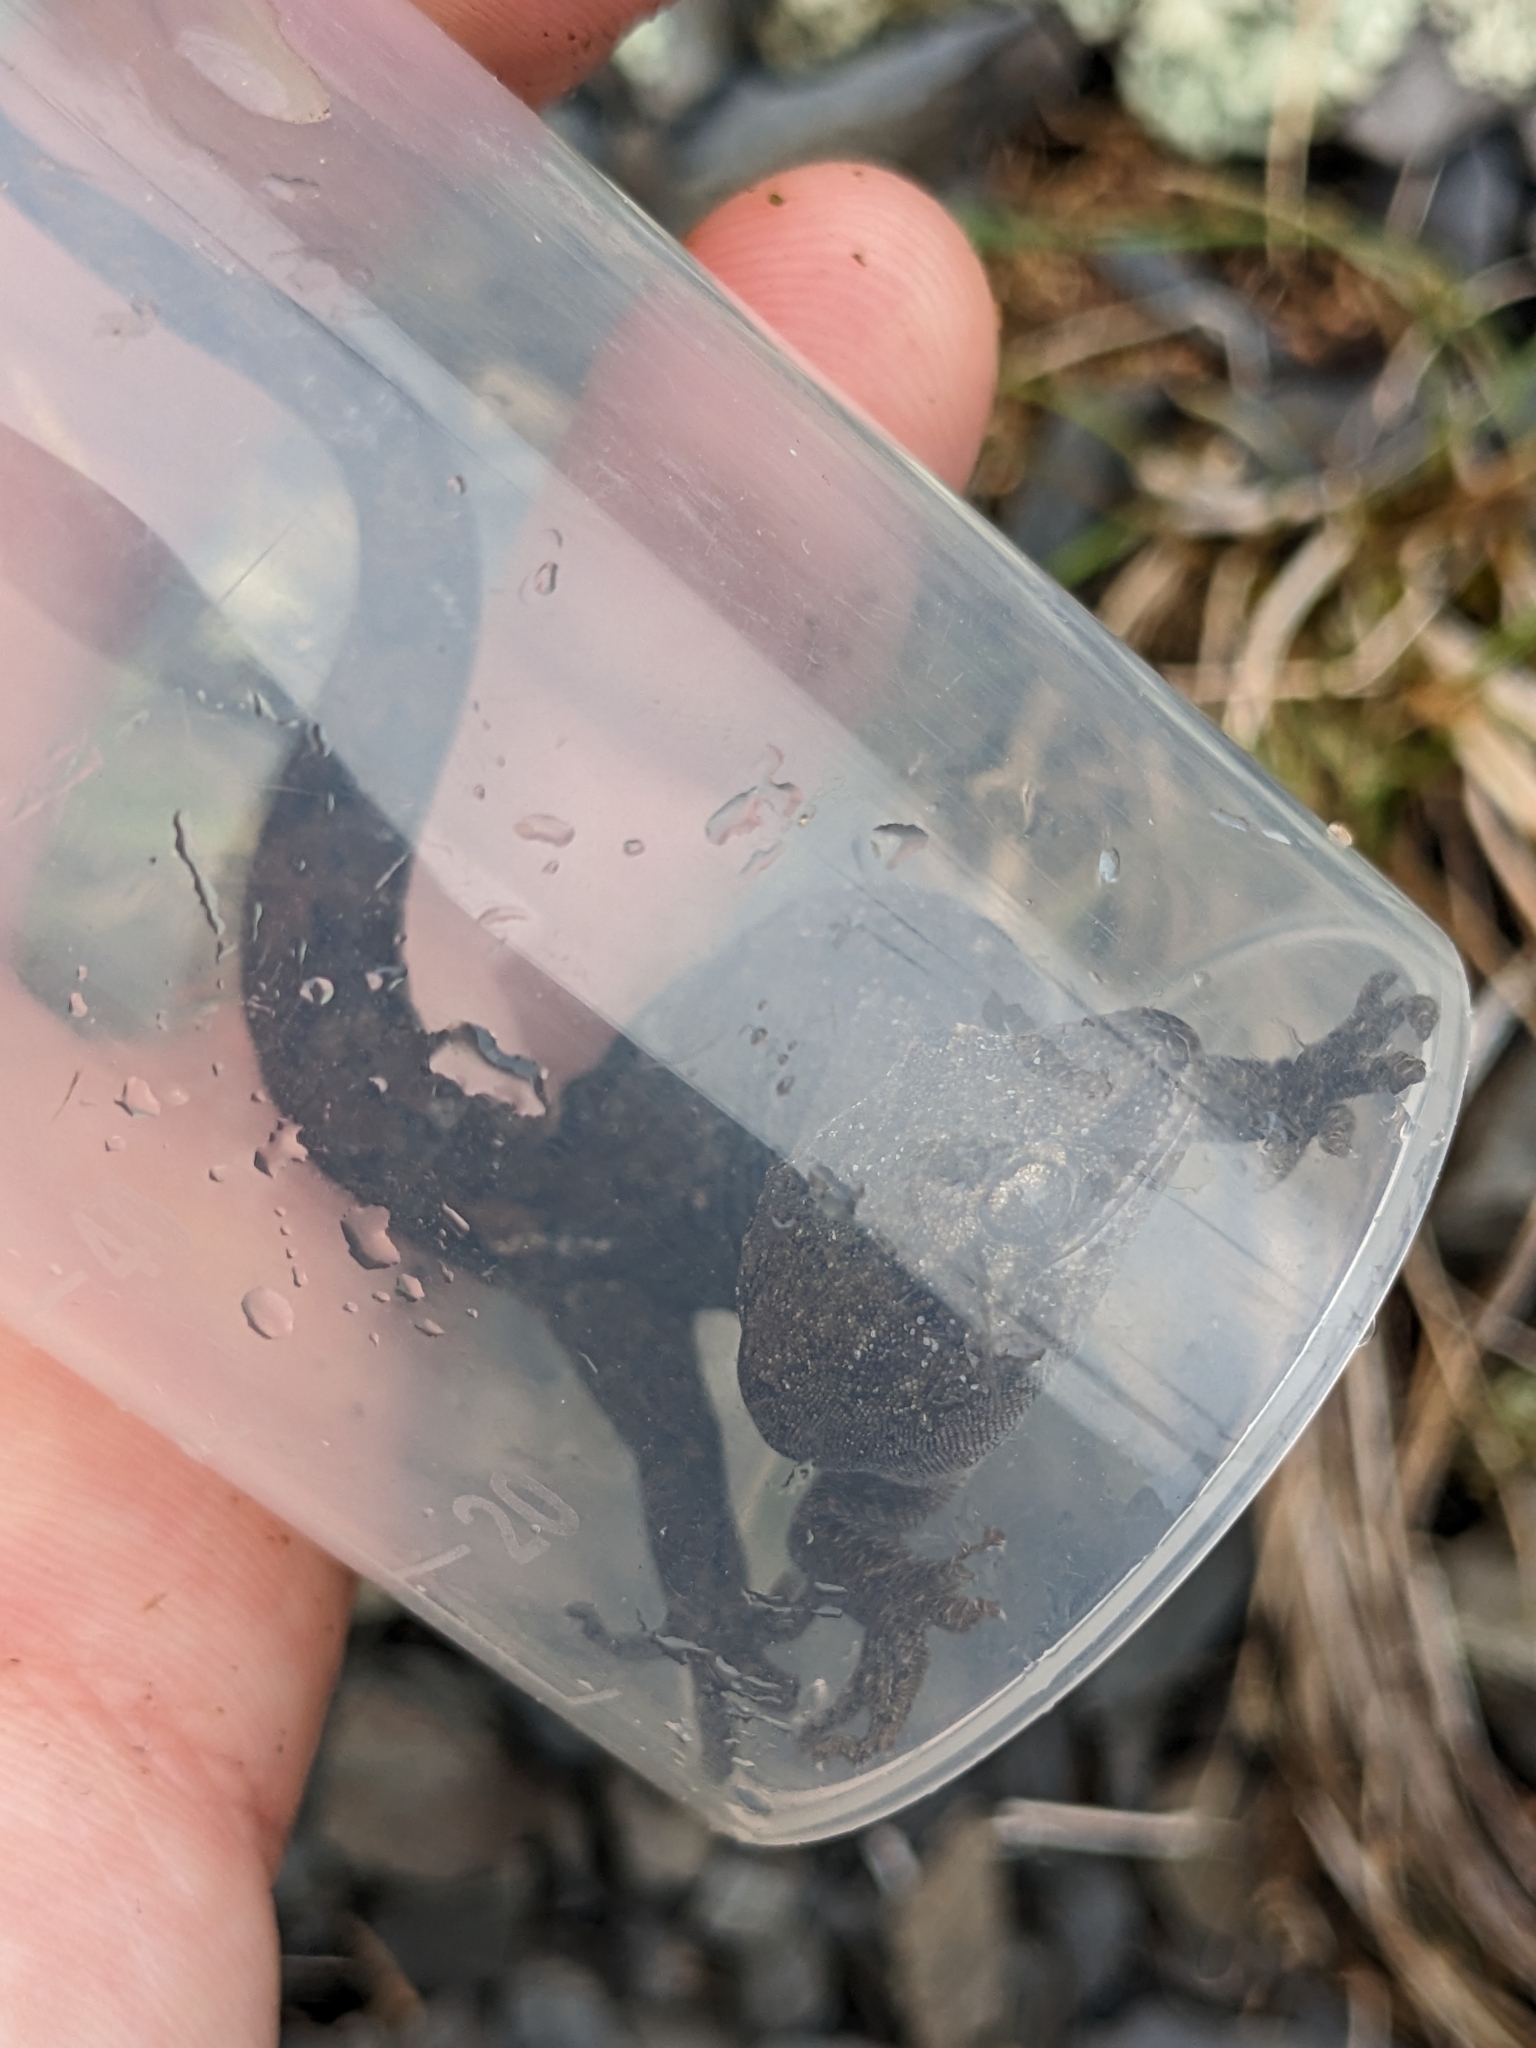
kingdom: Animalia
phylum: Chordata
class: Squamata
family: Diplodactylidae
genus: Woodworthia
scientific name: Woodworthia
